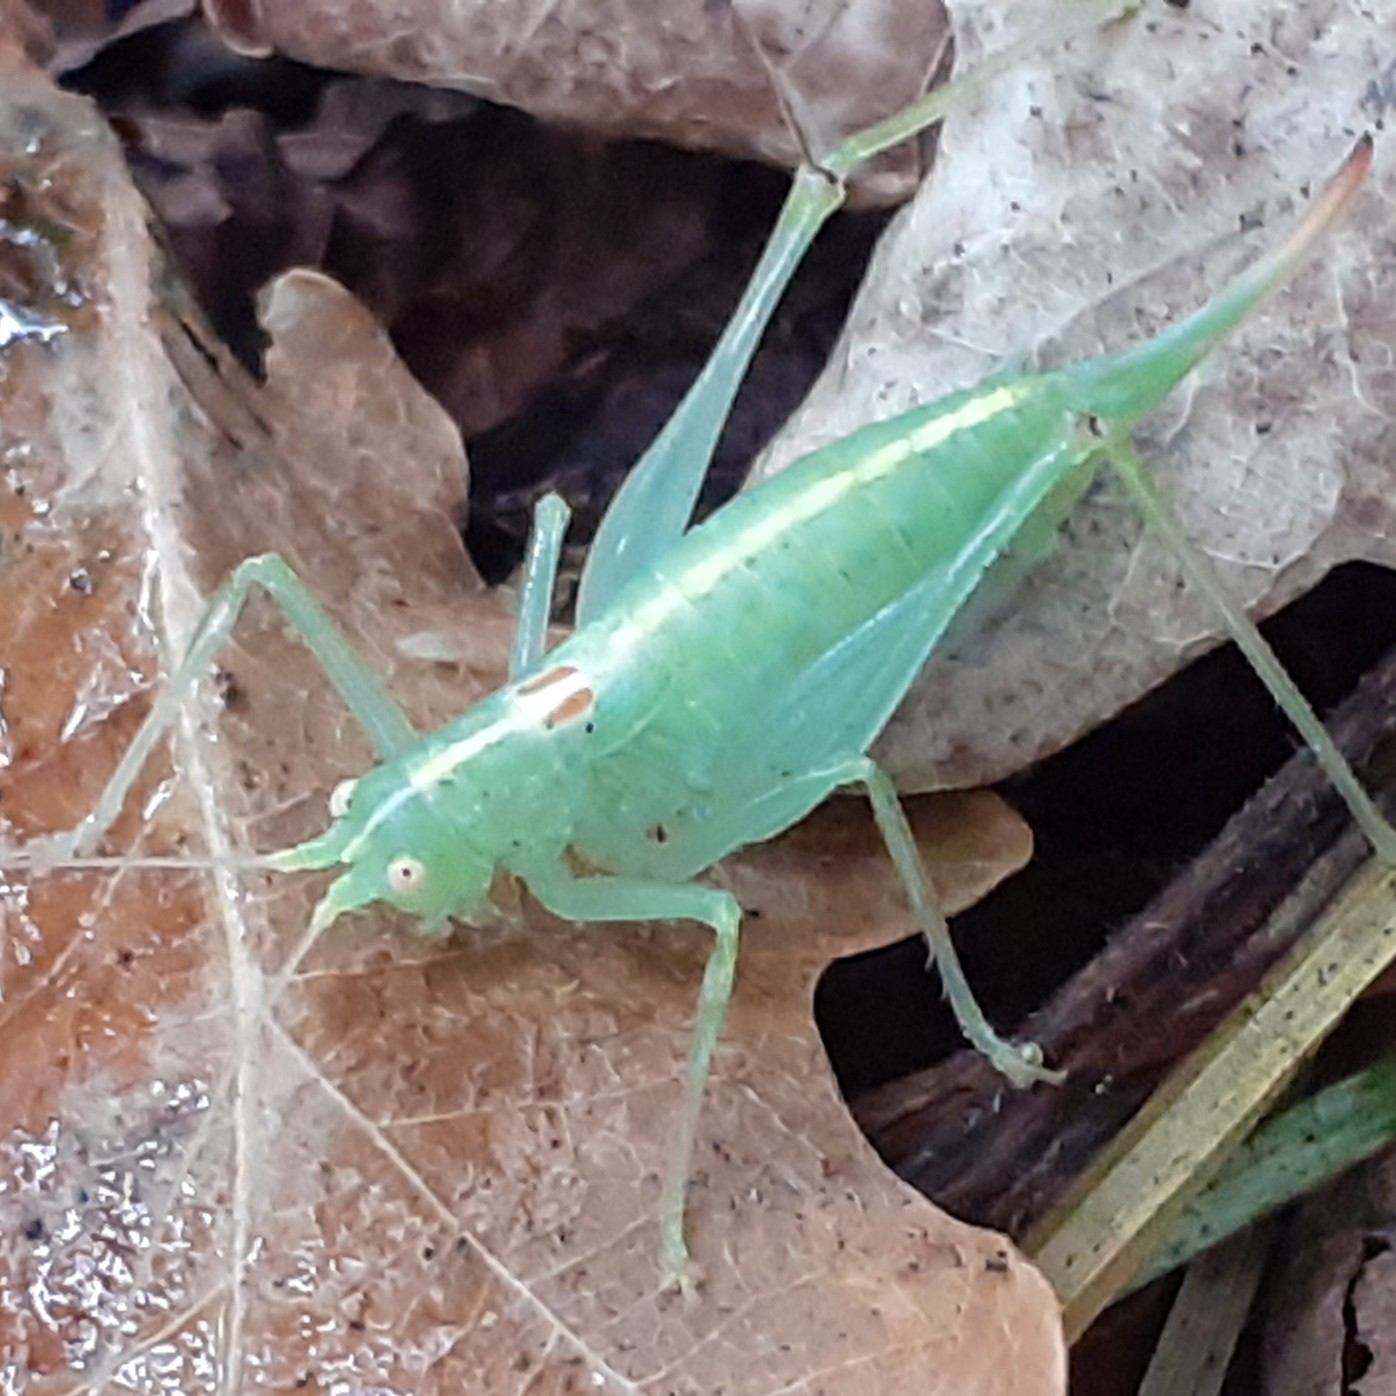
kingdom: Animalia
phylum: Arthropoda
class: Insecta
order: Orthoptera
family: Tettigoniidae
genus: Meconema
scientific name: Meconema meridionale
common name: Southern oak bush-cricket
